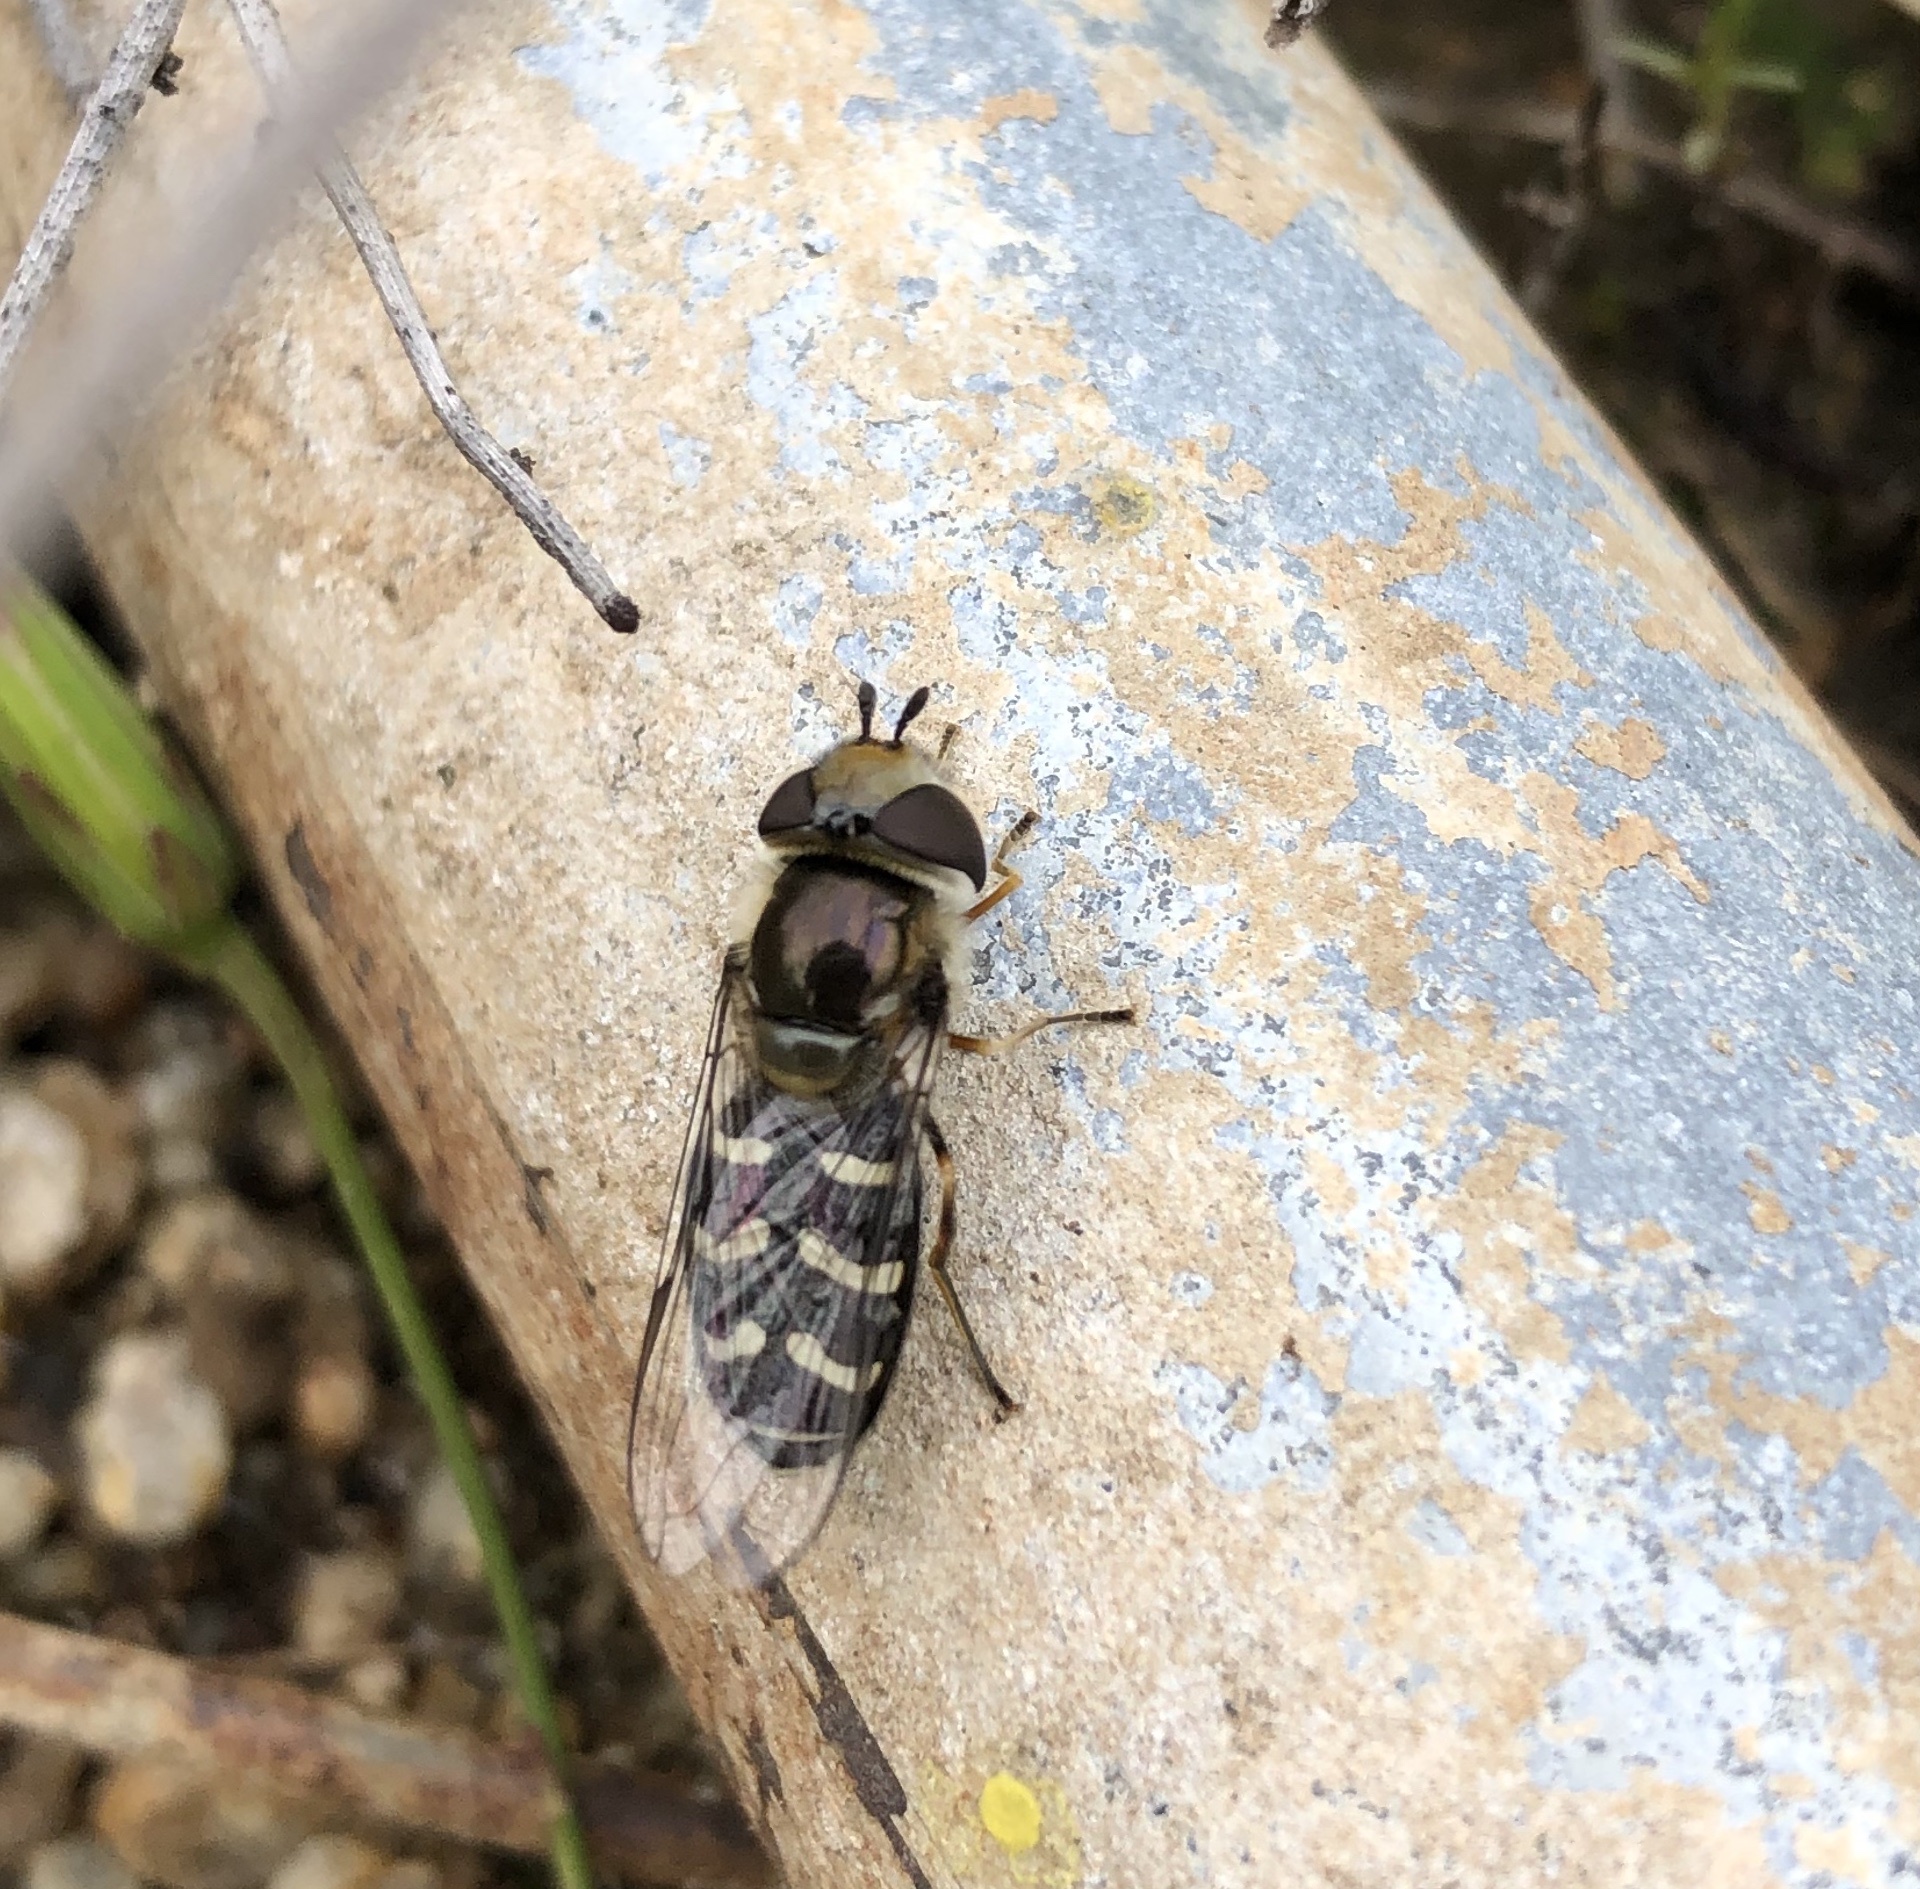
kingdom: Animalia
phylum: Arthropoda
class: Insecta
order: Diptera
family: Syrphidae
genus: Scaeva
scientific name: Scaeva affinis
